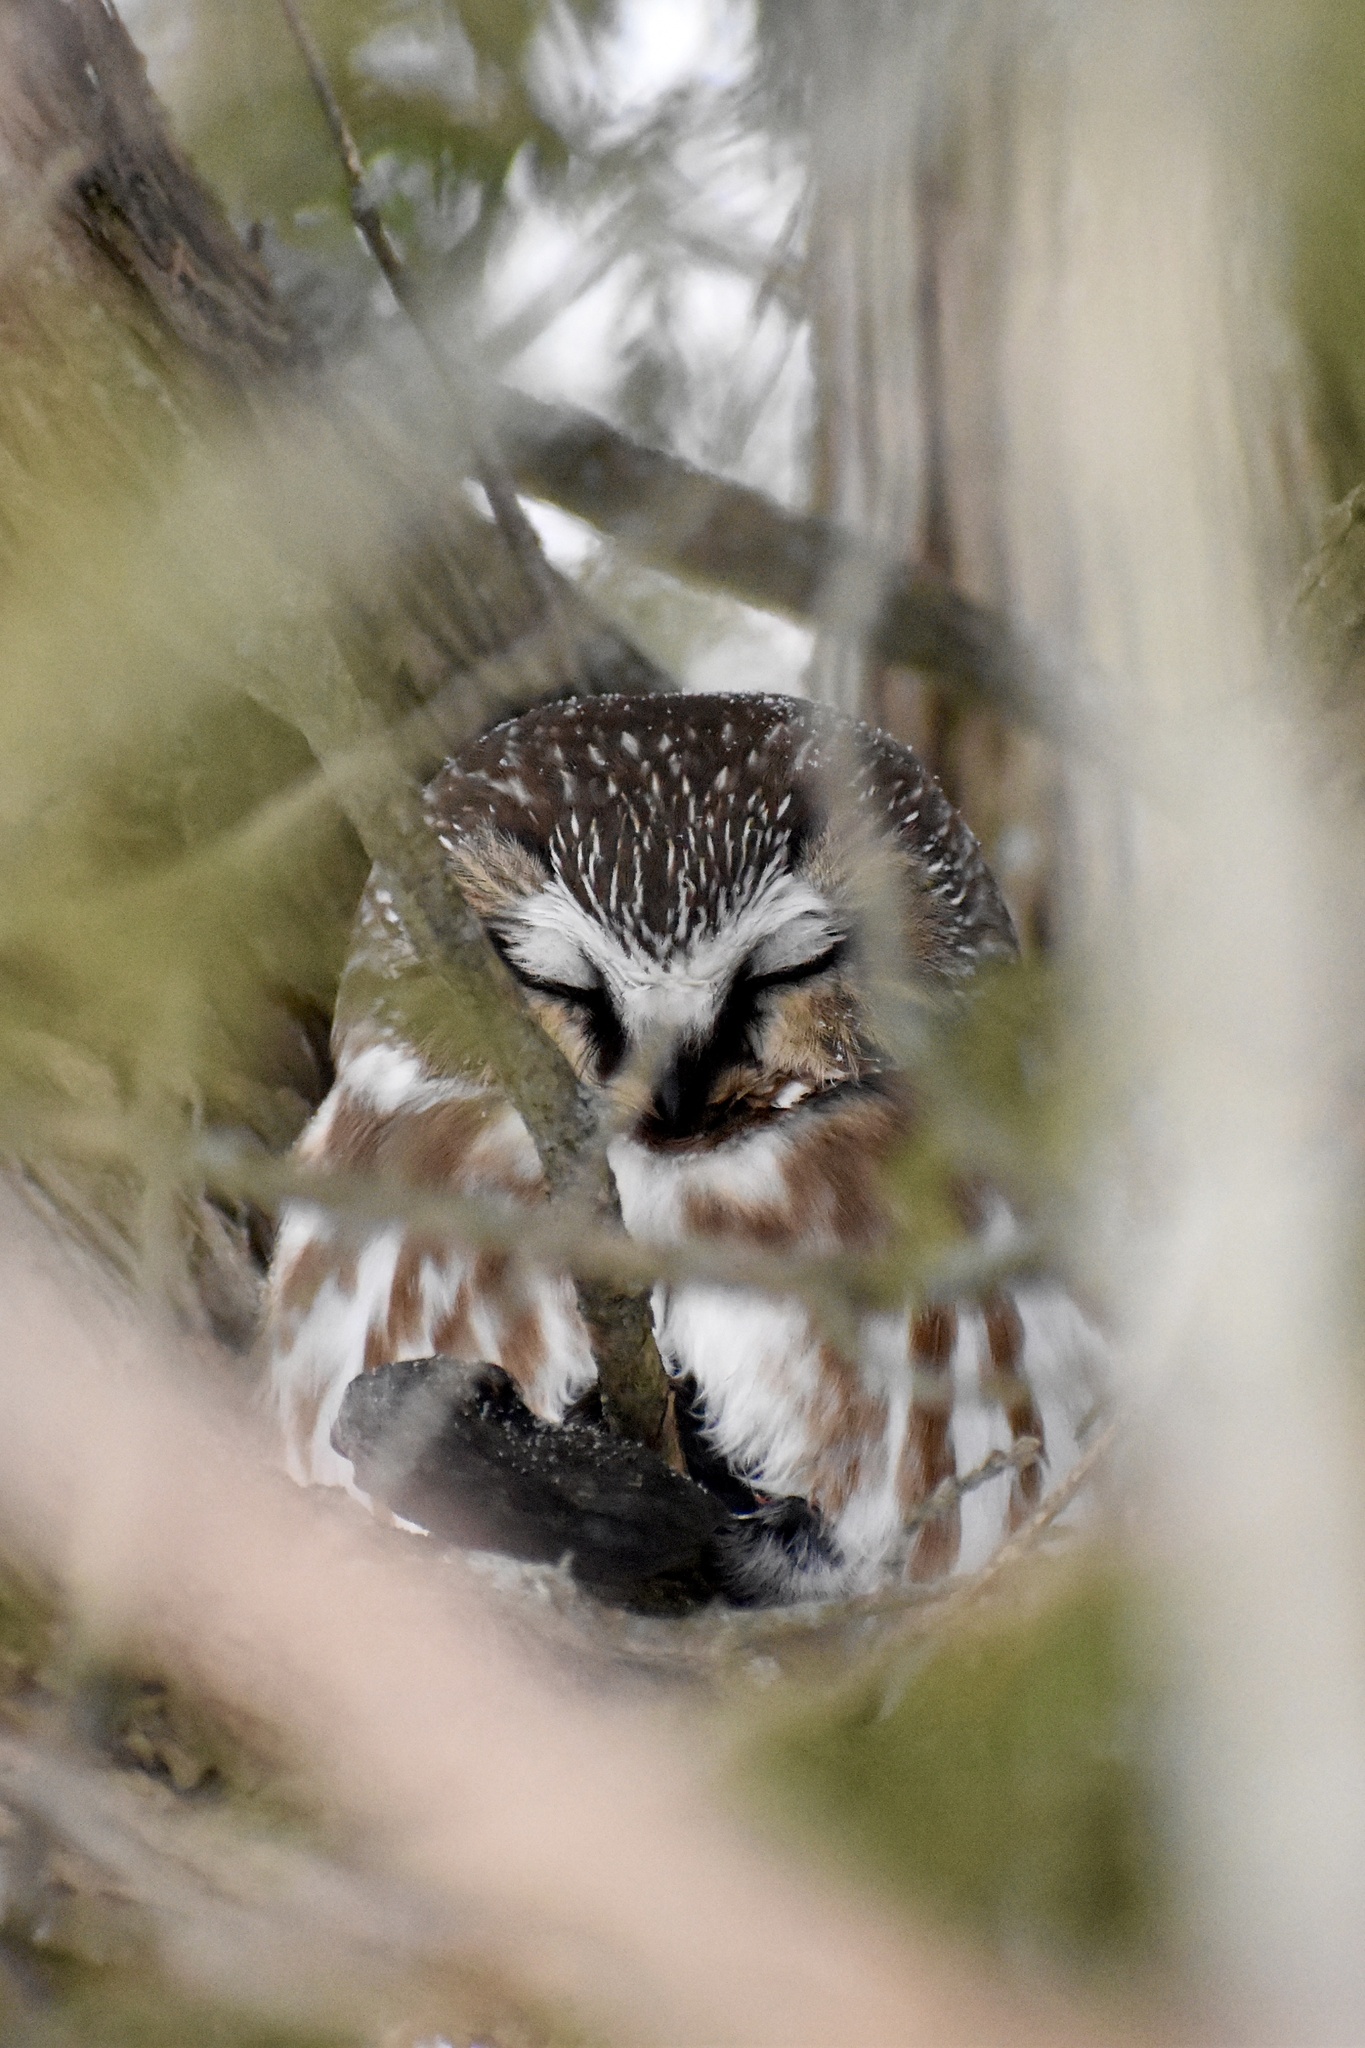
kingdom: Animalia
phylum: Chordata
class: Aves
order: Strigiformes
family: Strigidae
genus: Aegolius
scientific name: Aegolius acadicus
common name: Northern saw-whet owl
